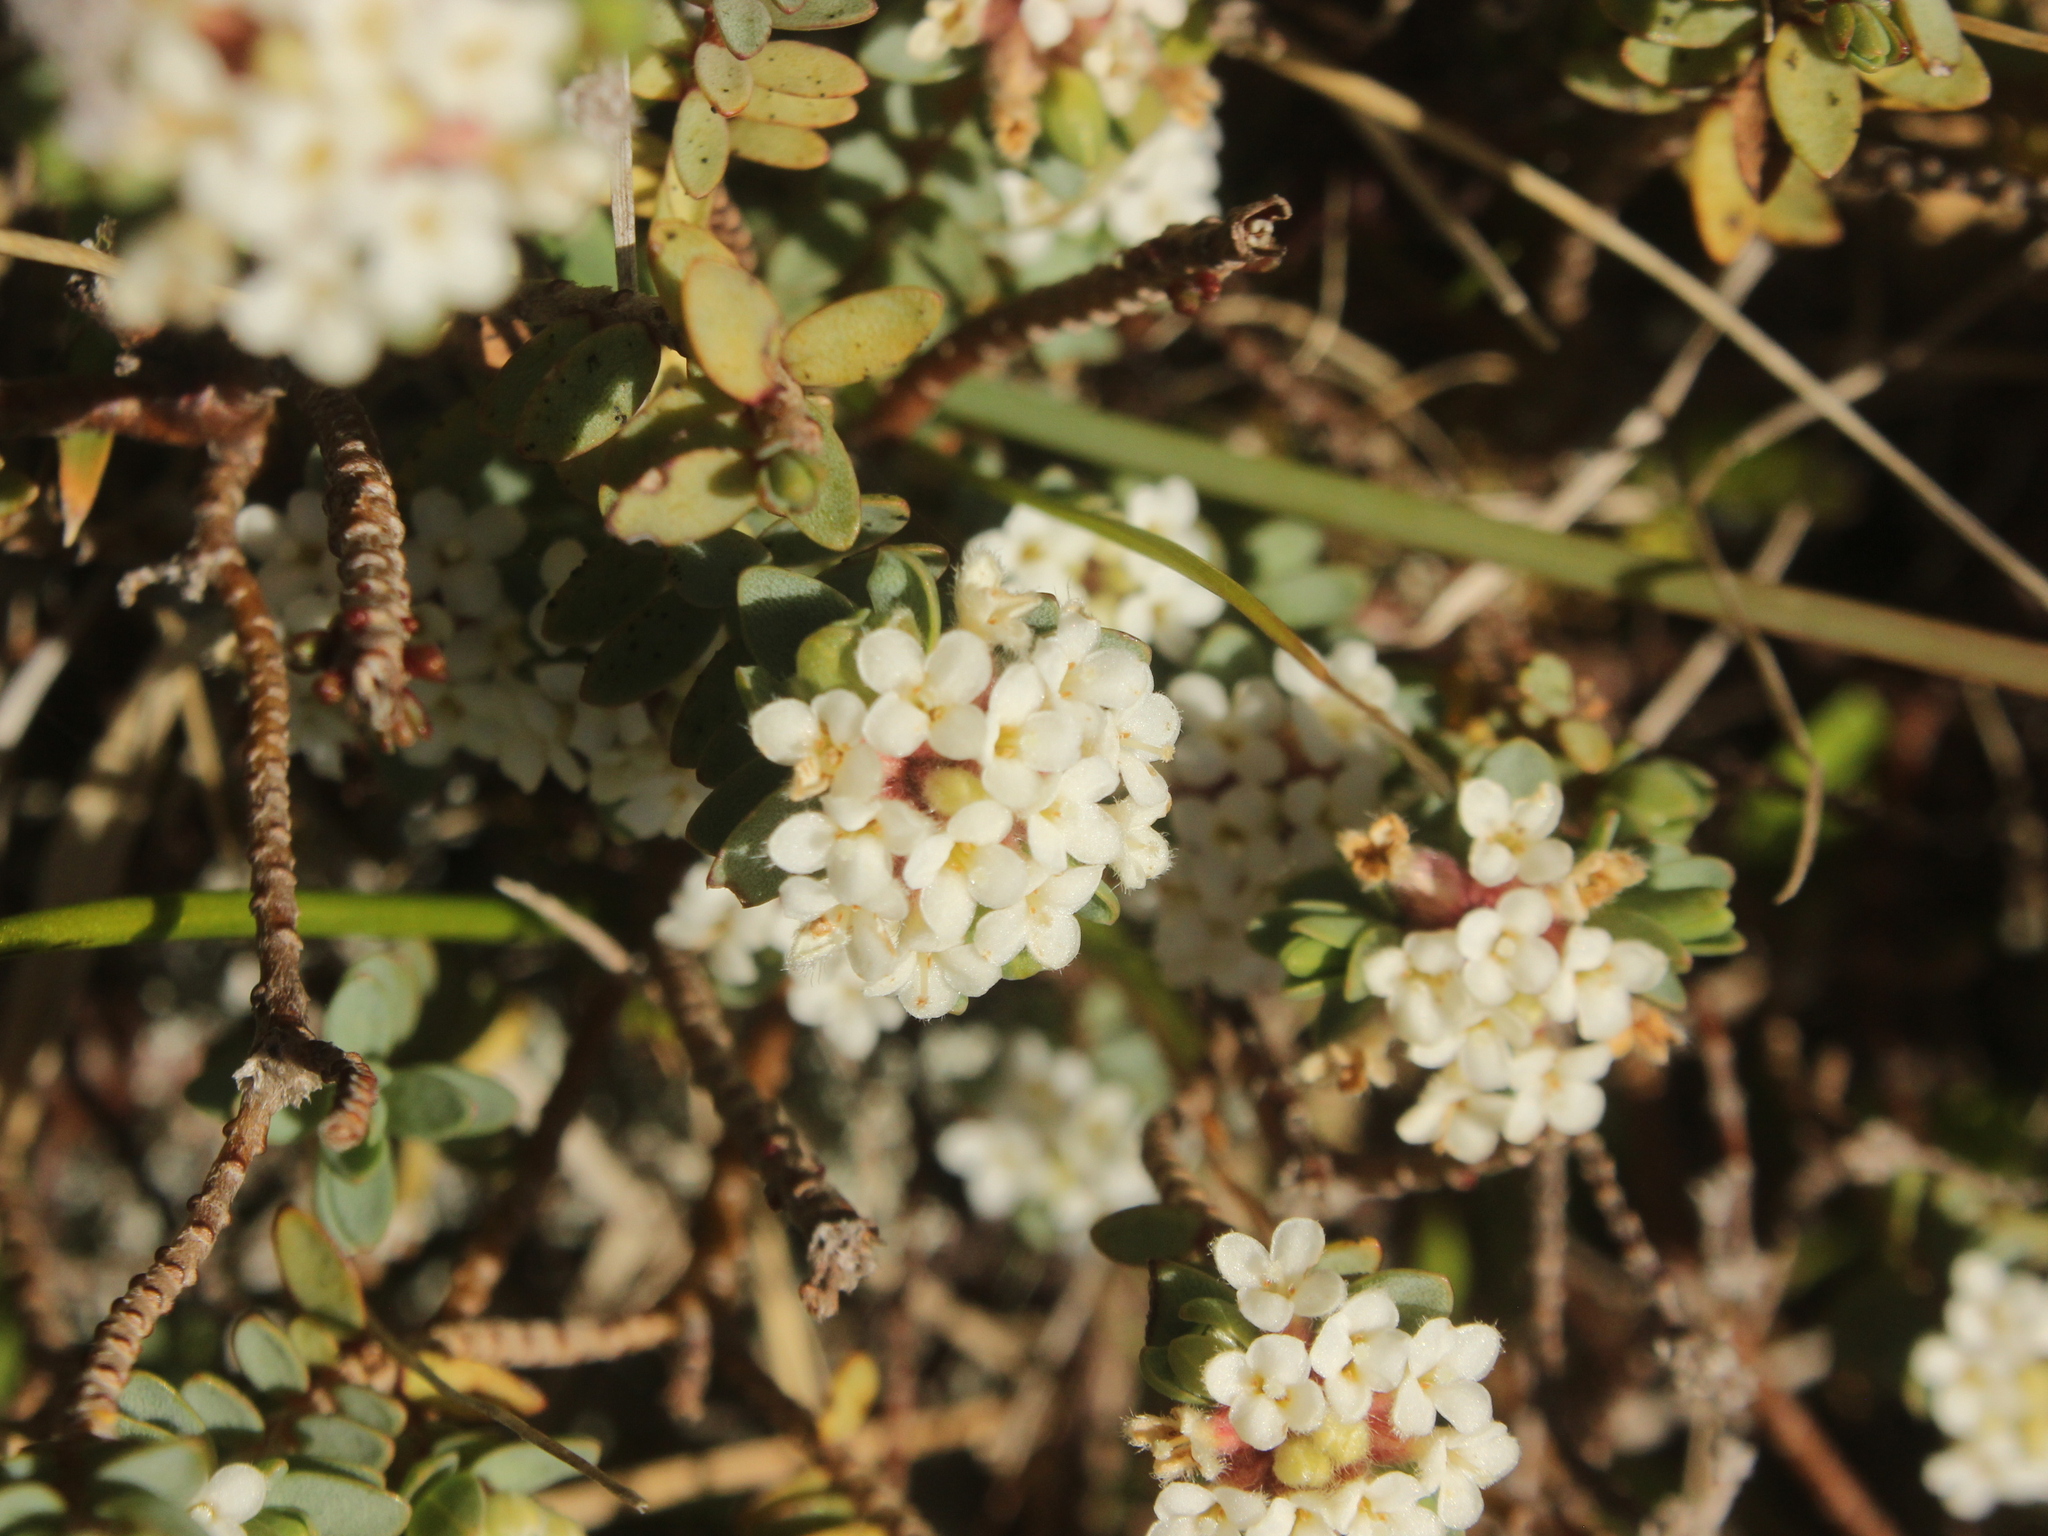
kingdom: Plantae
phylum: Tracheophyta
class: Magnoliopsida
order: Malvales
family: Thymelaeaceae
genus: Pimelea
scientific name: Pimelea prostrata
